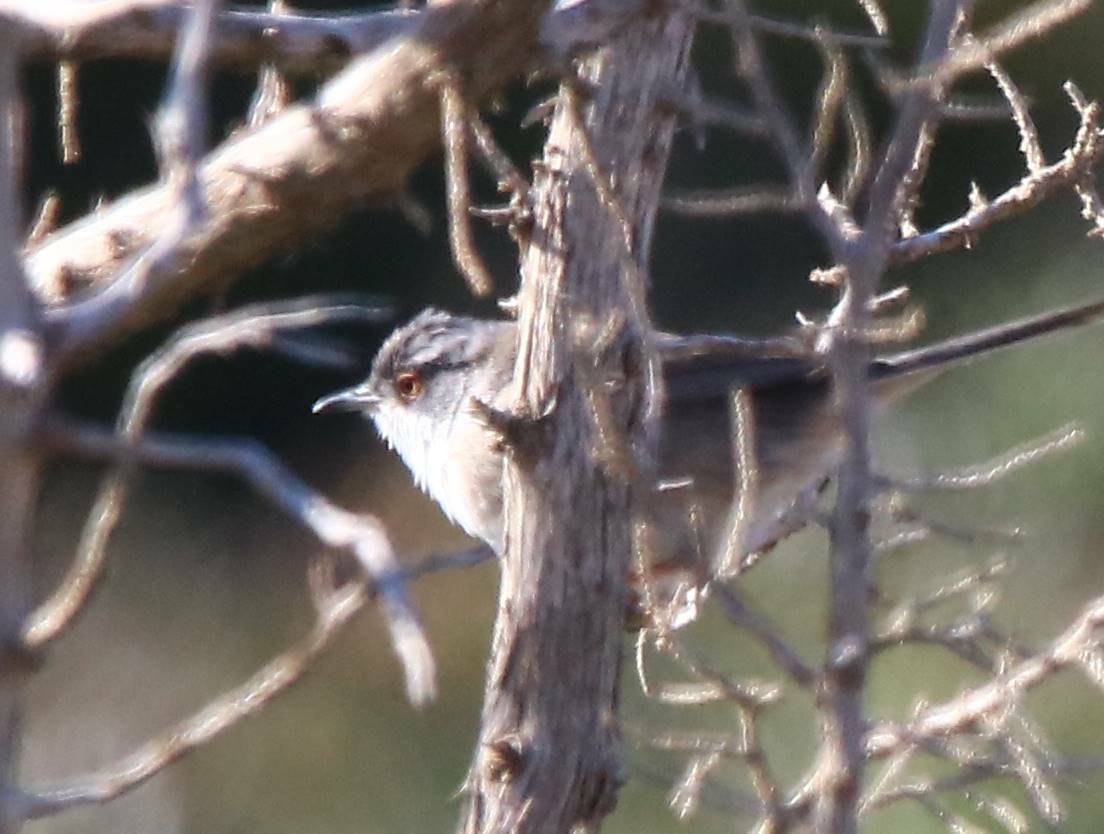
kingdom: Animalia
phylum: Chordata
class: Aves
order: Passeriformes
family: Sylviidae
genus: Curruca
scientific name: Curruca melanocephala
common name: Sardinian warbler
